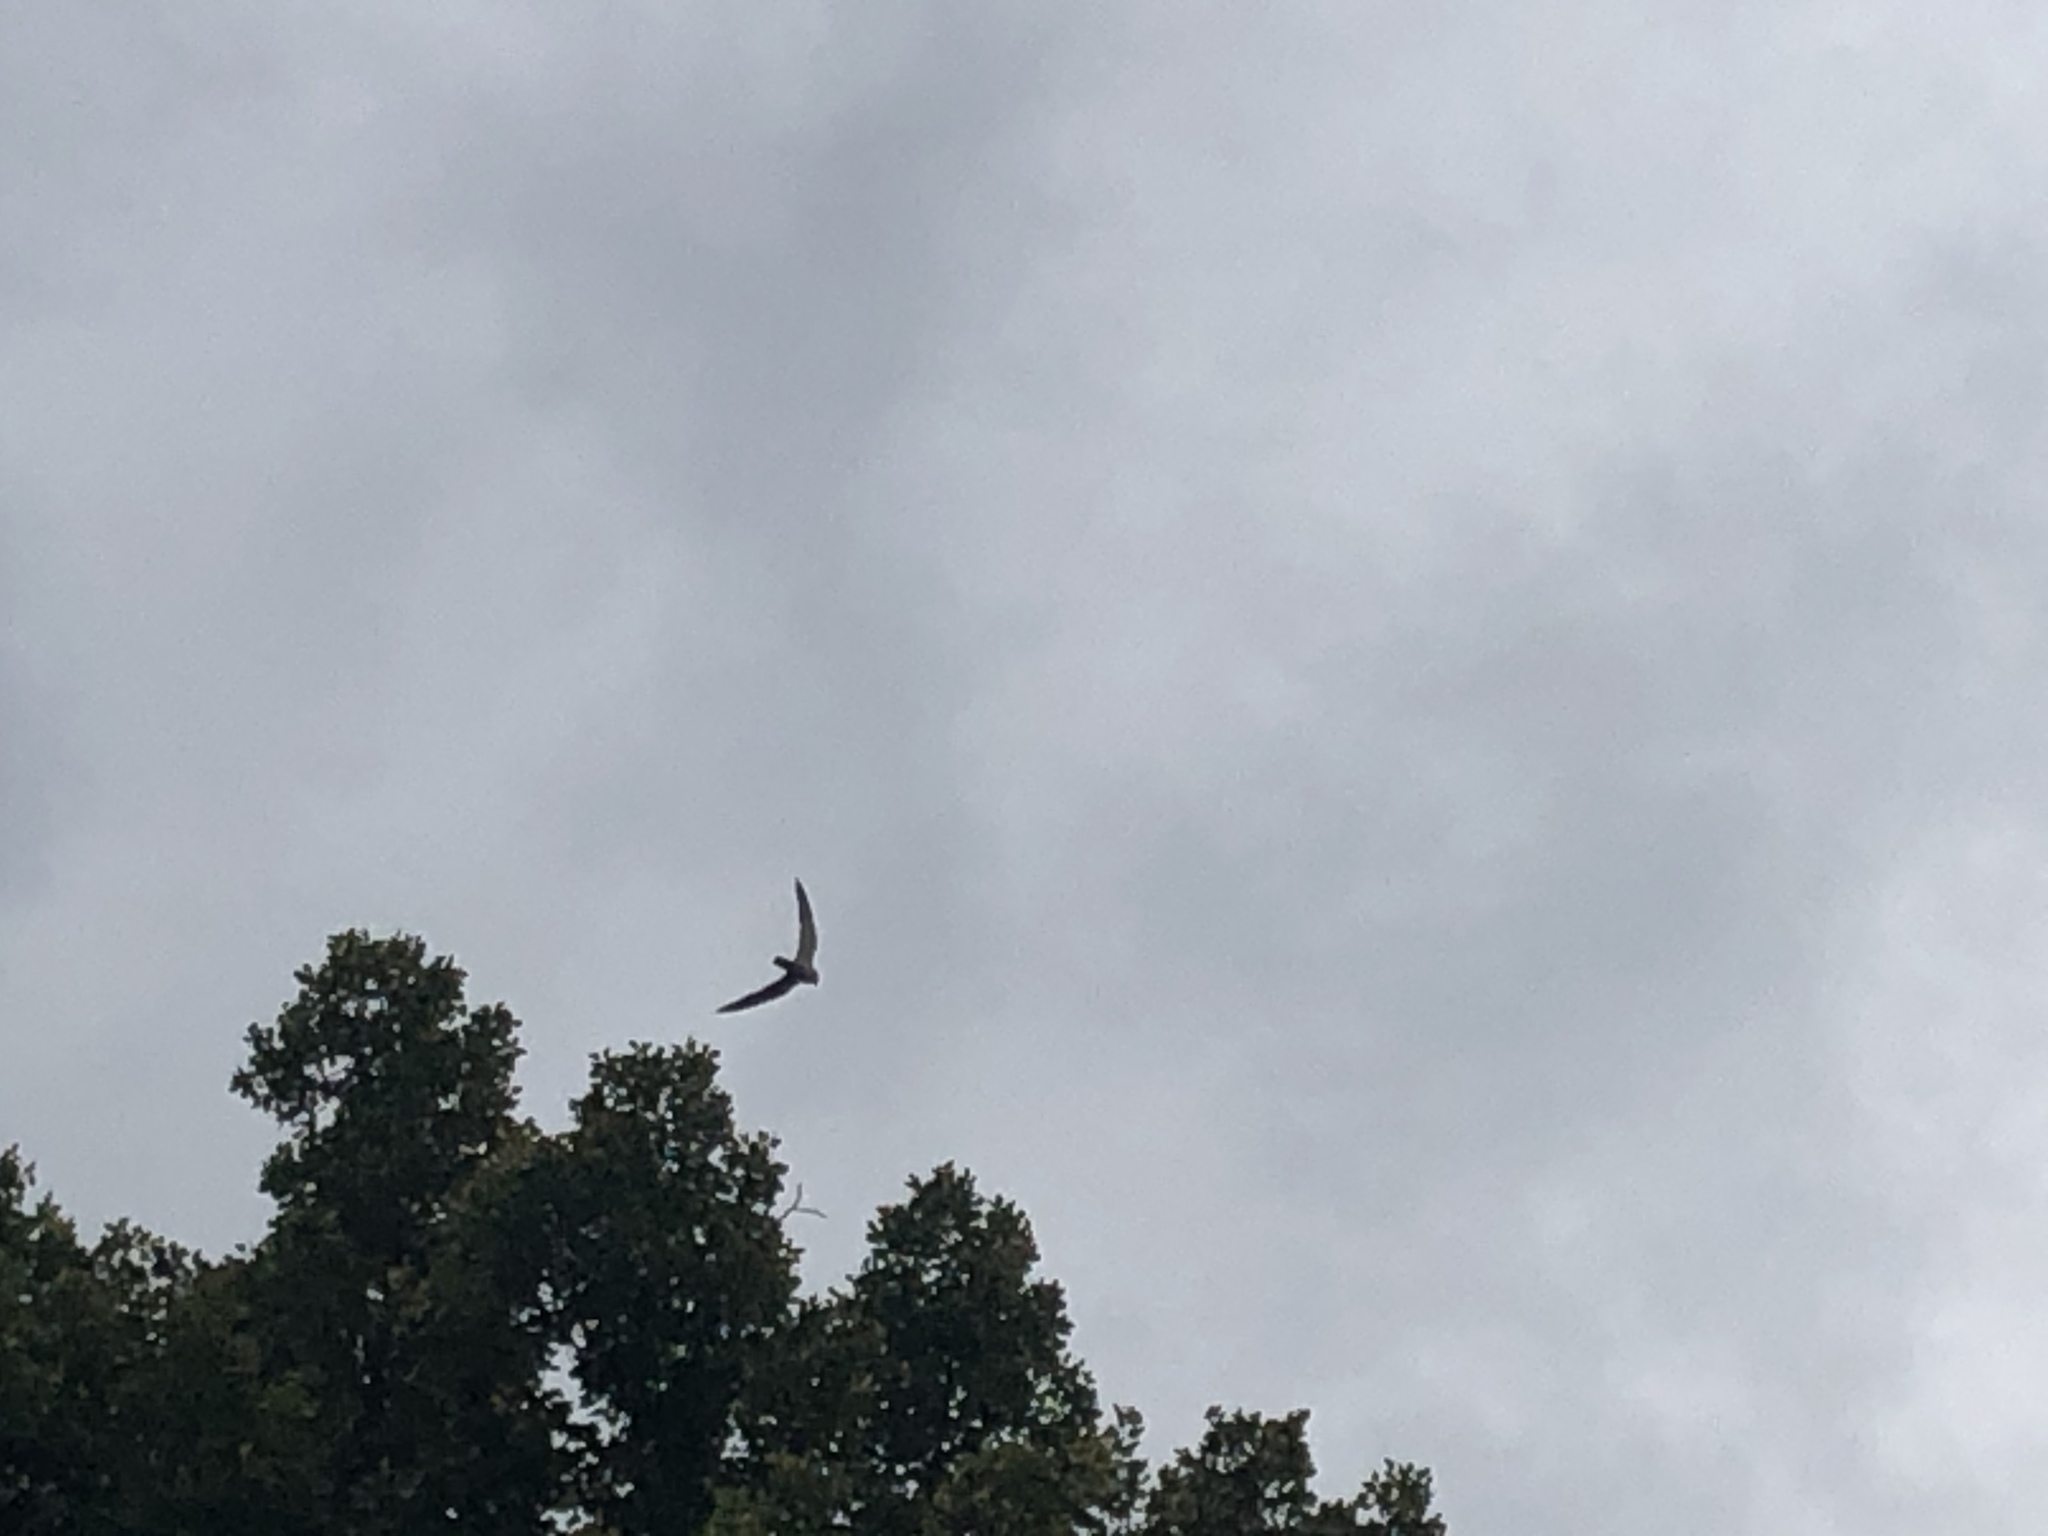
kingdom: Animalia
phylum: Chordata
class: Aves
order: Falconiformes
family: Falconidae
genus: Falco
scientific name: Falco subbuteo
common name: Eurasian hobby
